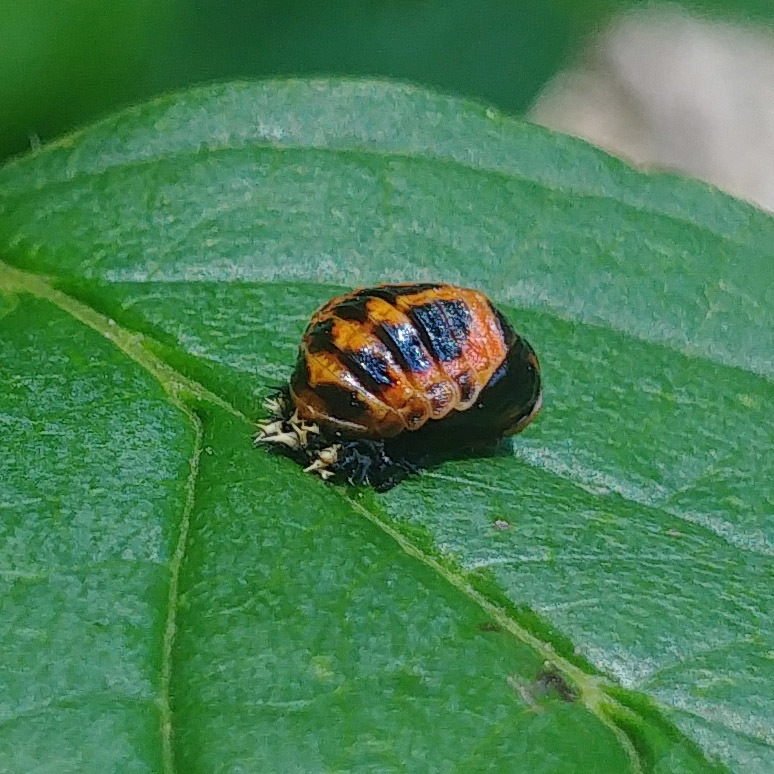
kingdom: Animalia
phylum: Arthropoda
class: Insecta
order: Coleoptera
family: Coccinellidae
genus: Harmonia
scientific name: Harmonia axyridis
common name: Harlequin ladybird
